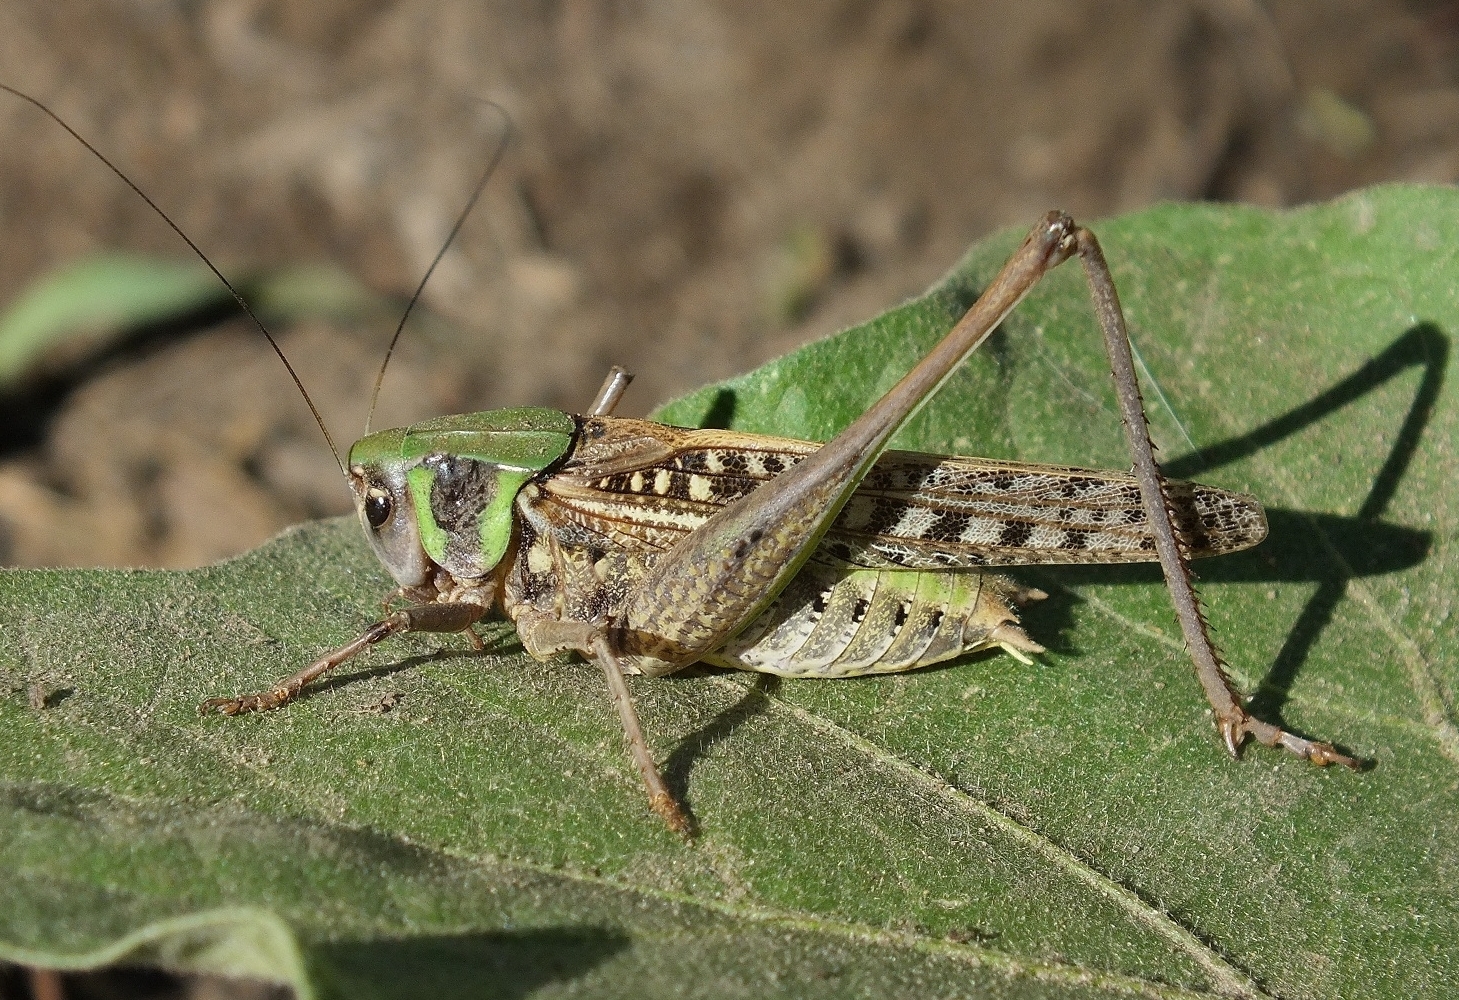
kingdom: Animalia
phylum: Arthropoda
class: Insecta
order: Orthoptera
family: Tettigoniidae
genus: Decticus
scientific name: Decticus verrucivorus
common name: Wart-biter
